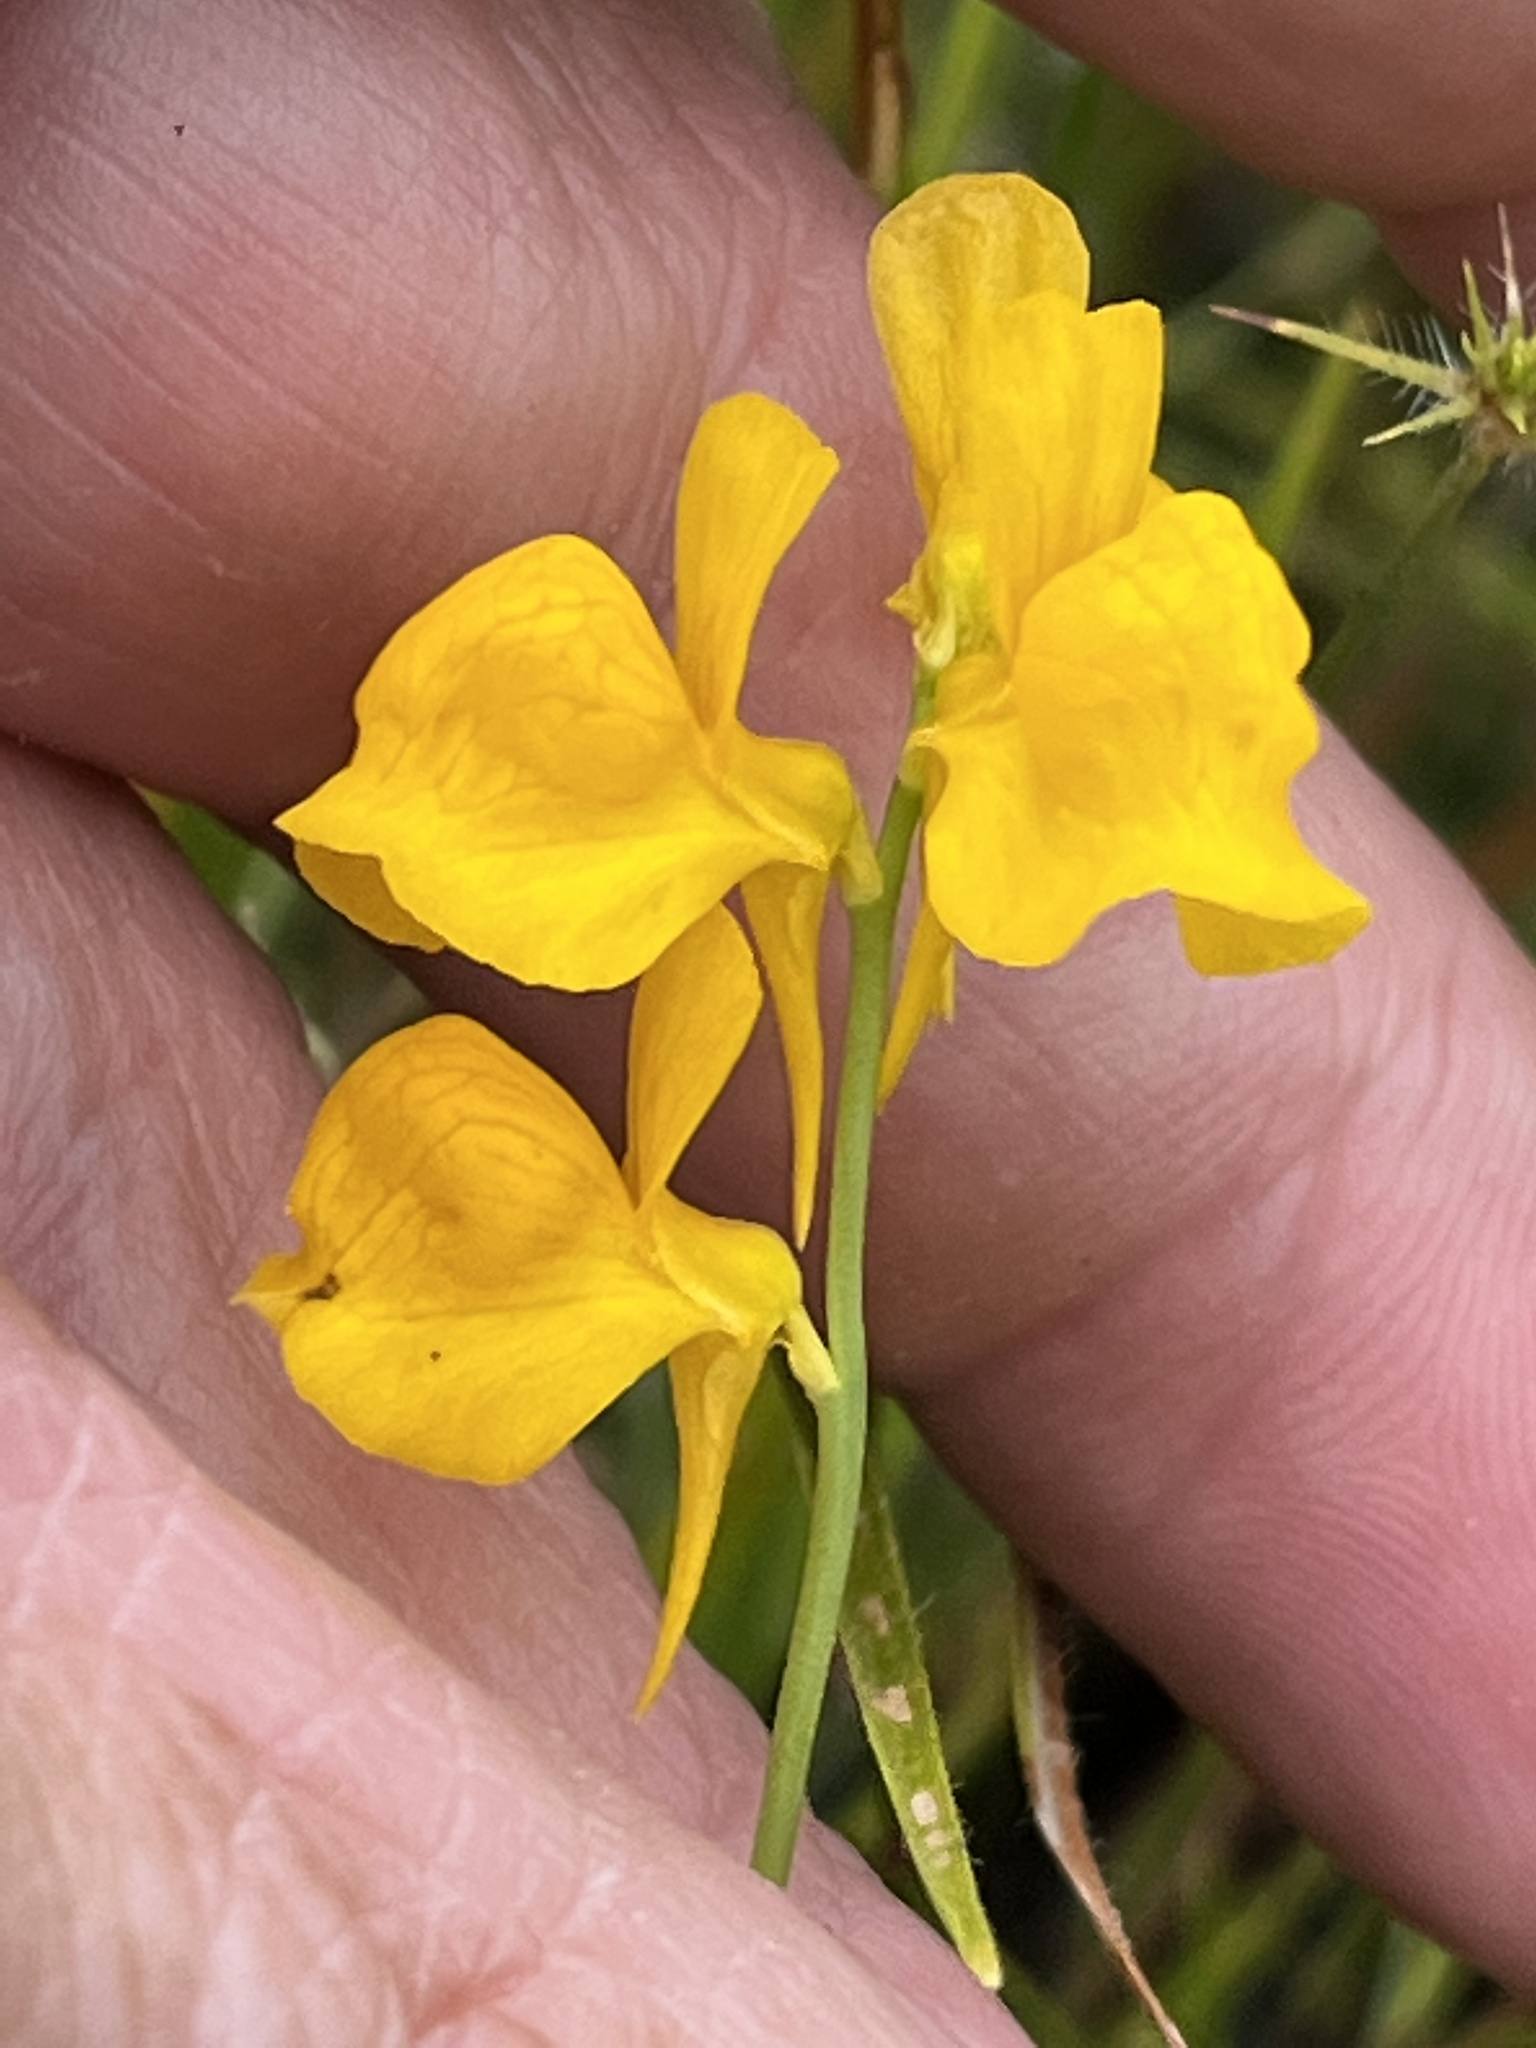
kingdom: Plantae
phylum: Tracheophyta
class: Magnoliopsida
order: Lamiales
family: Lentibulariaceae
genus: Utricularia
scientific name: Utricularia cornuta
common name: Horned bladderwort
